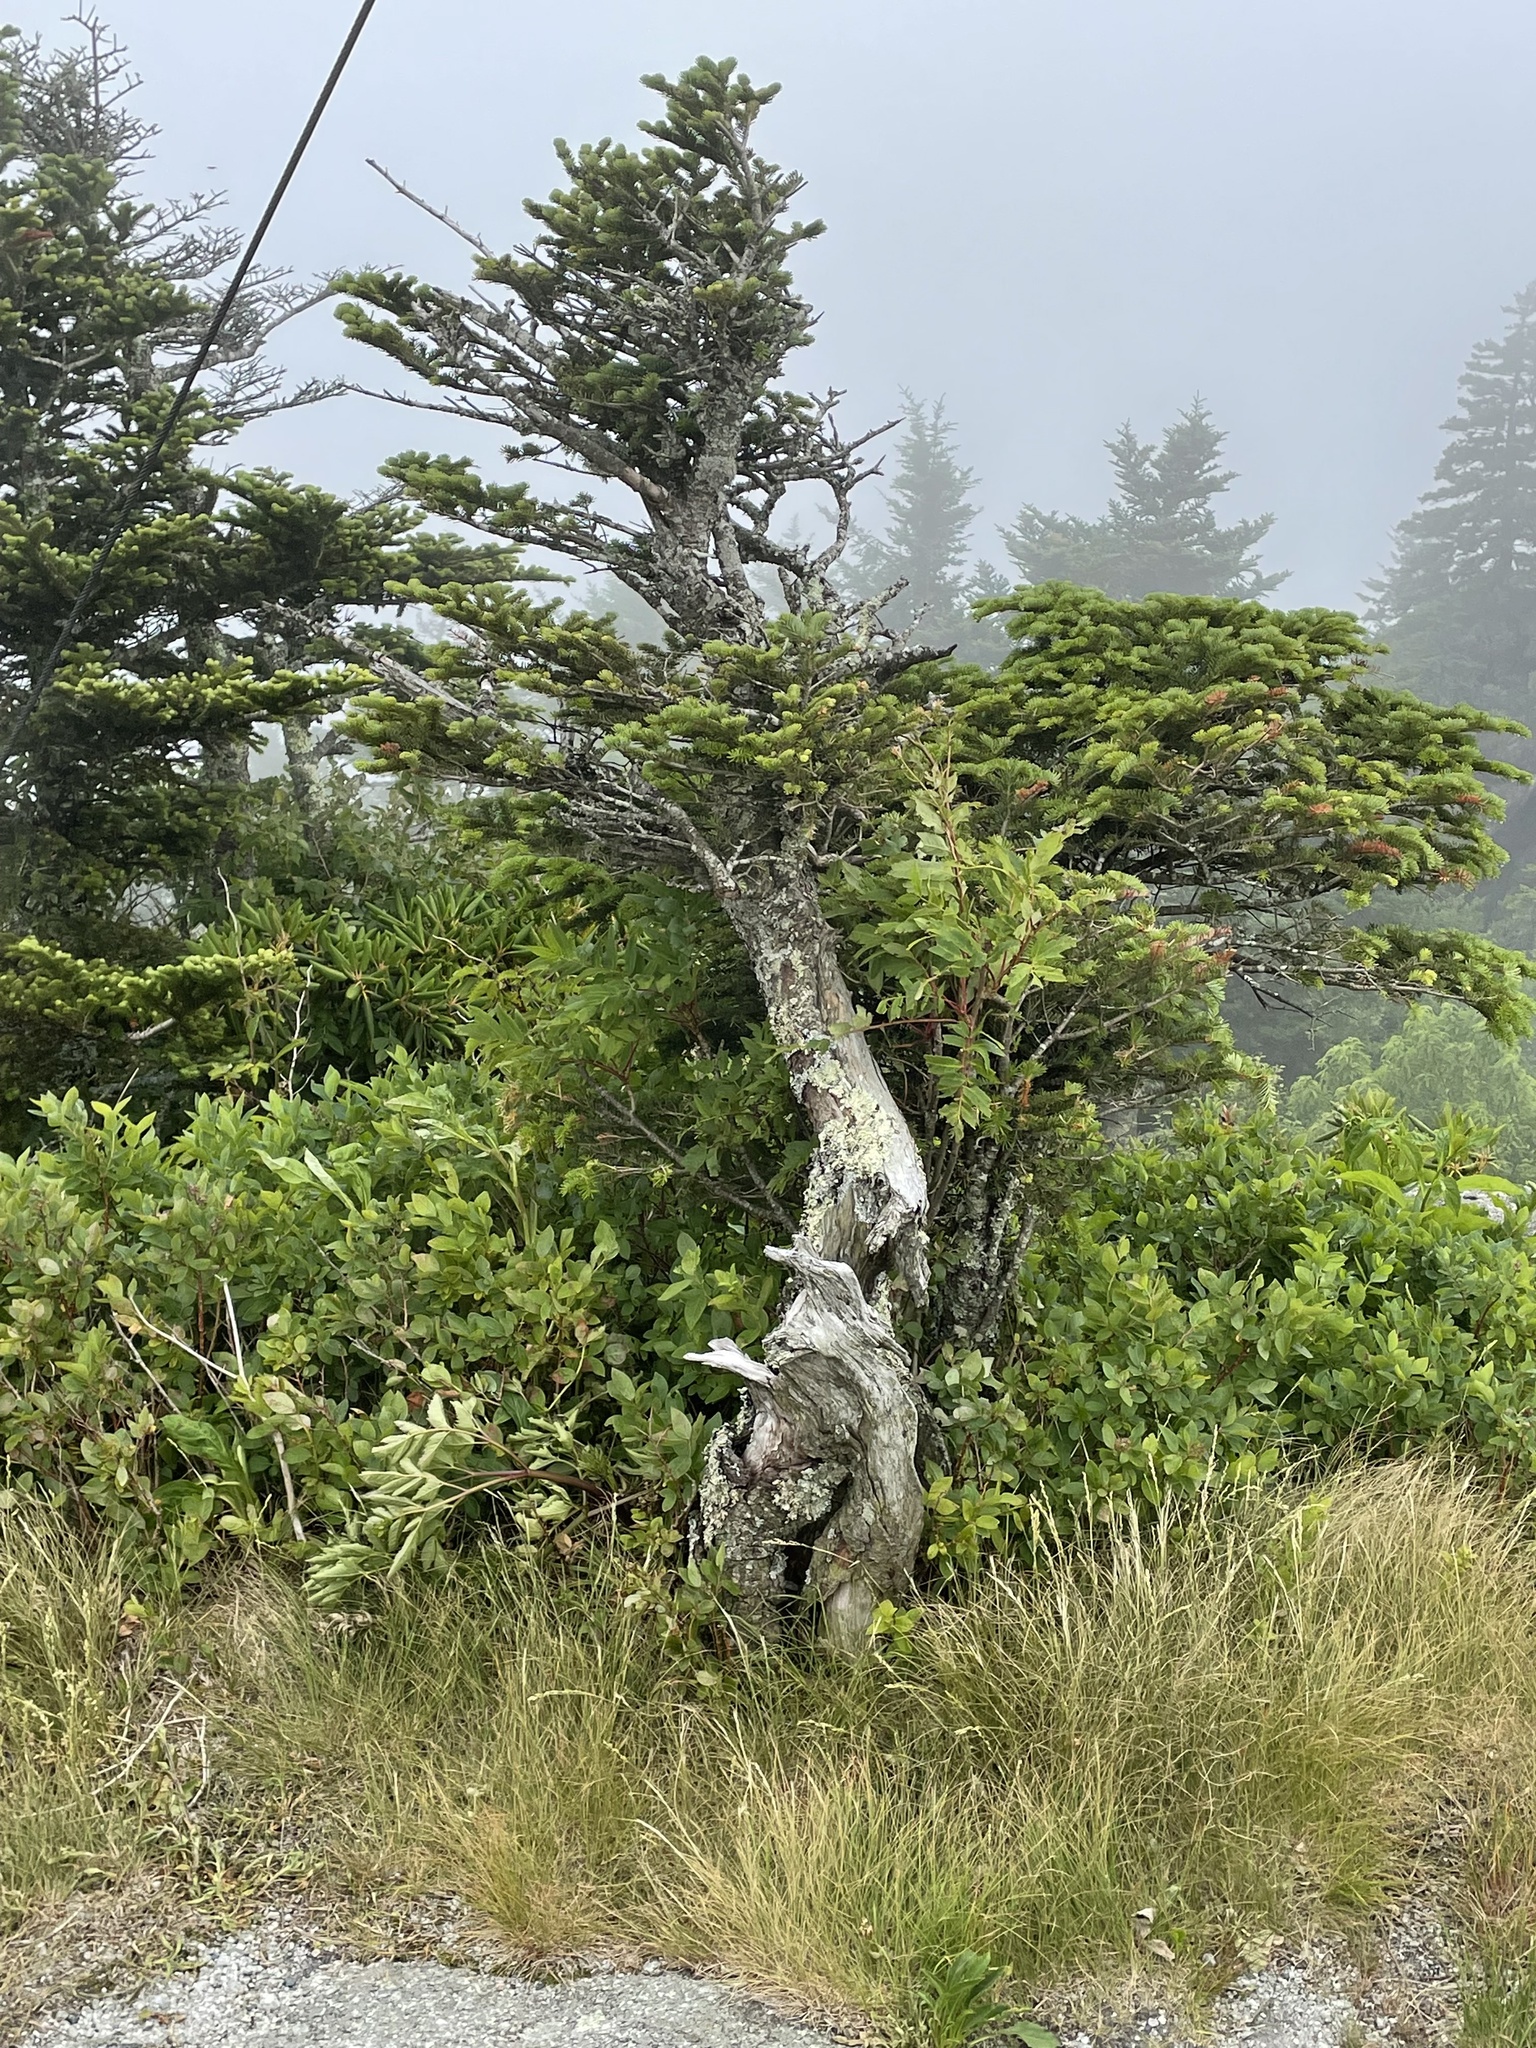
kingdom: Plantae
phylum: Tracheophyta
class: Pinopsida
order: Pinales
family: Pinaceae
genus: Abies
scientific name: Abies fraseri
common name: Fraser fir
